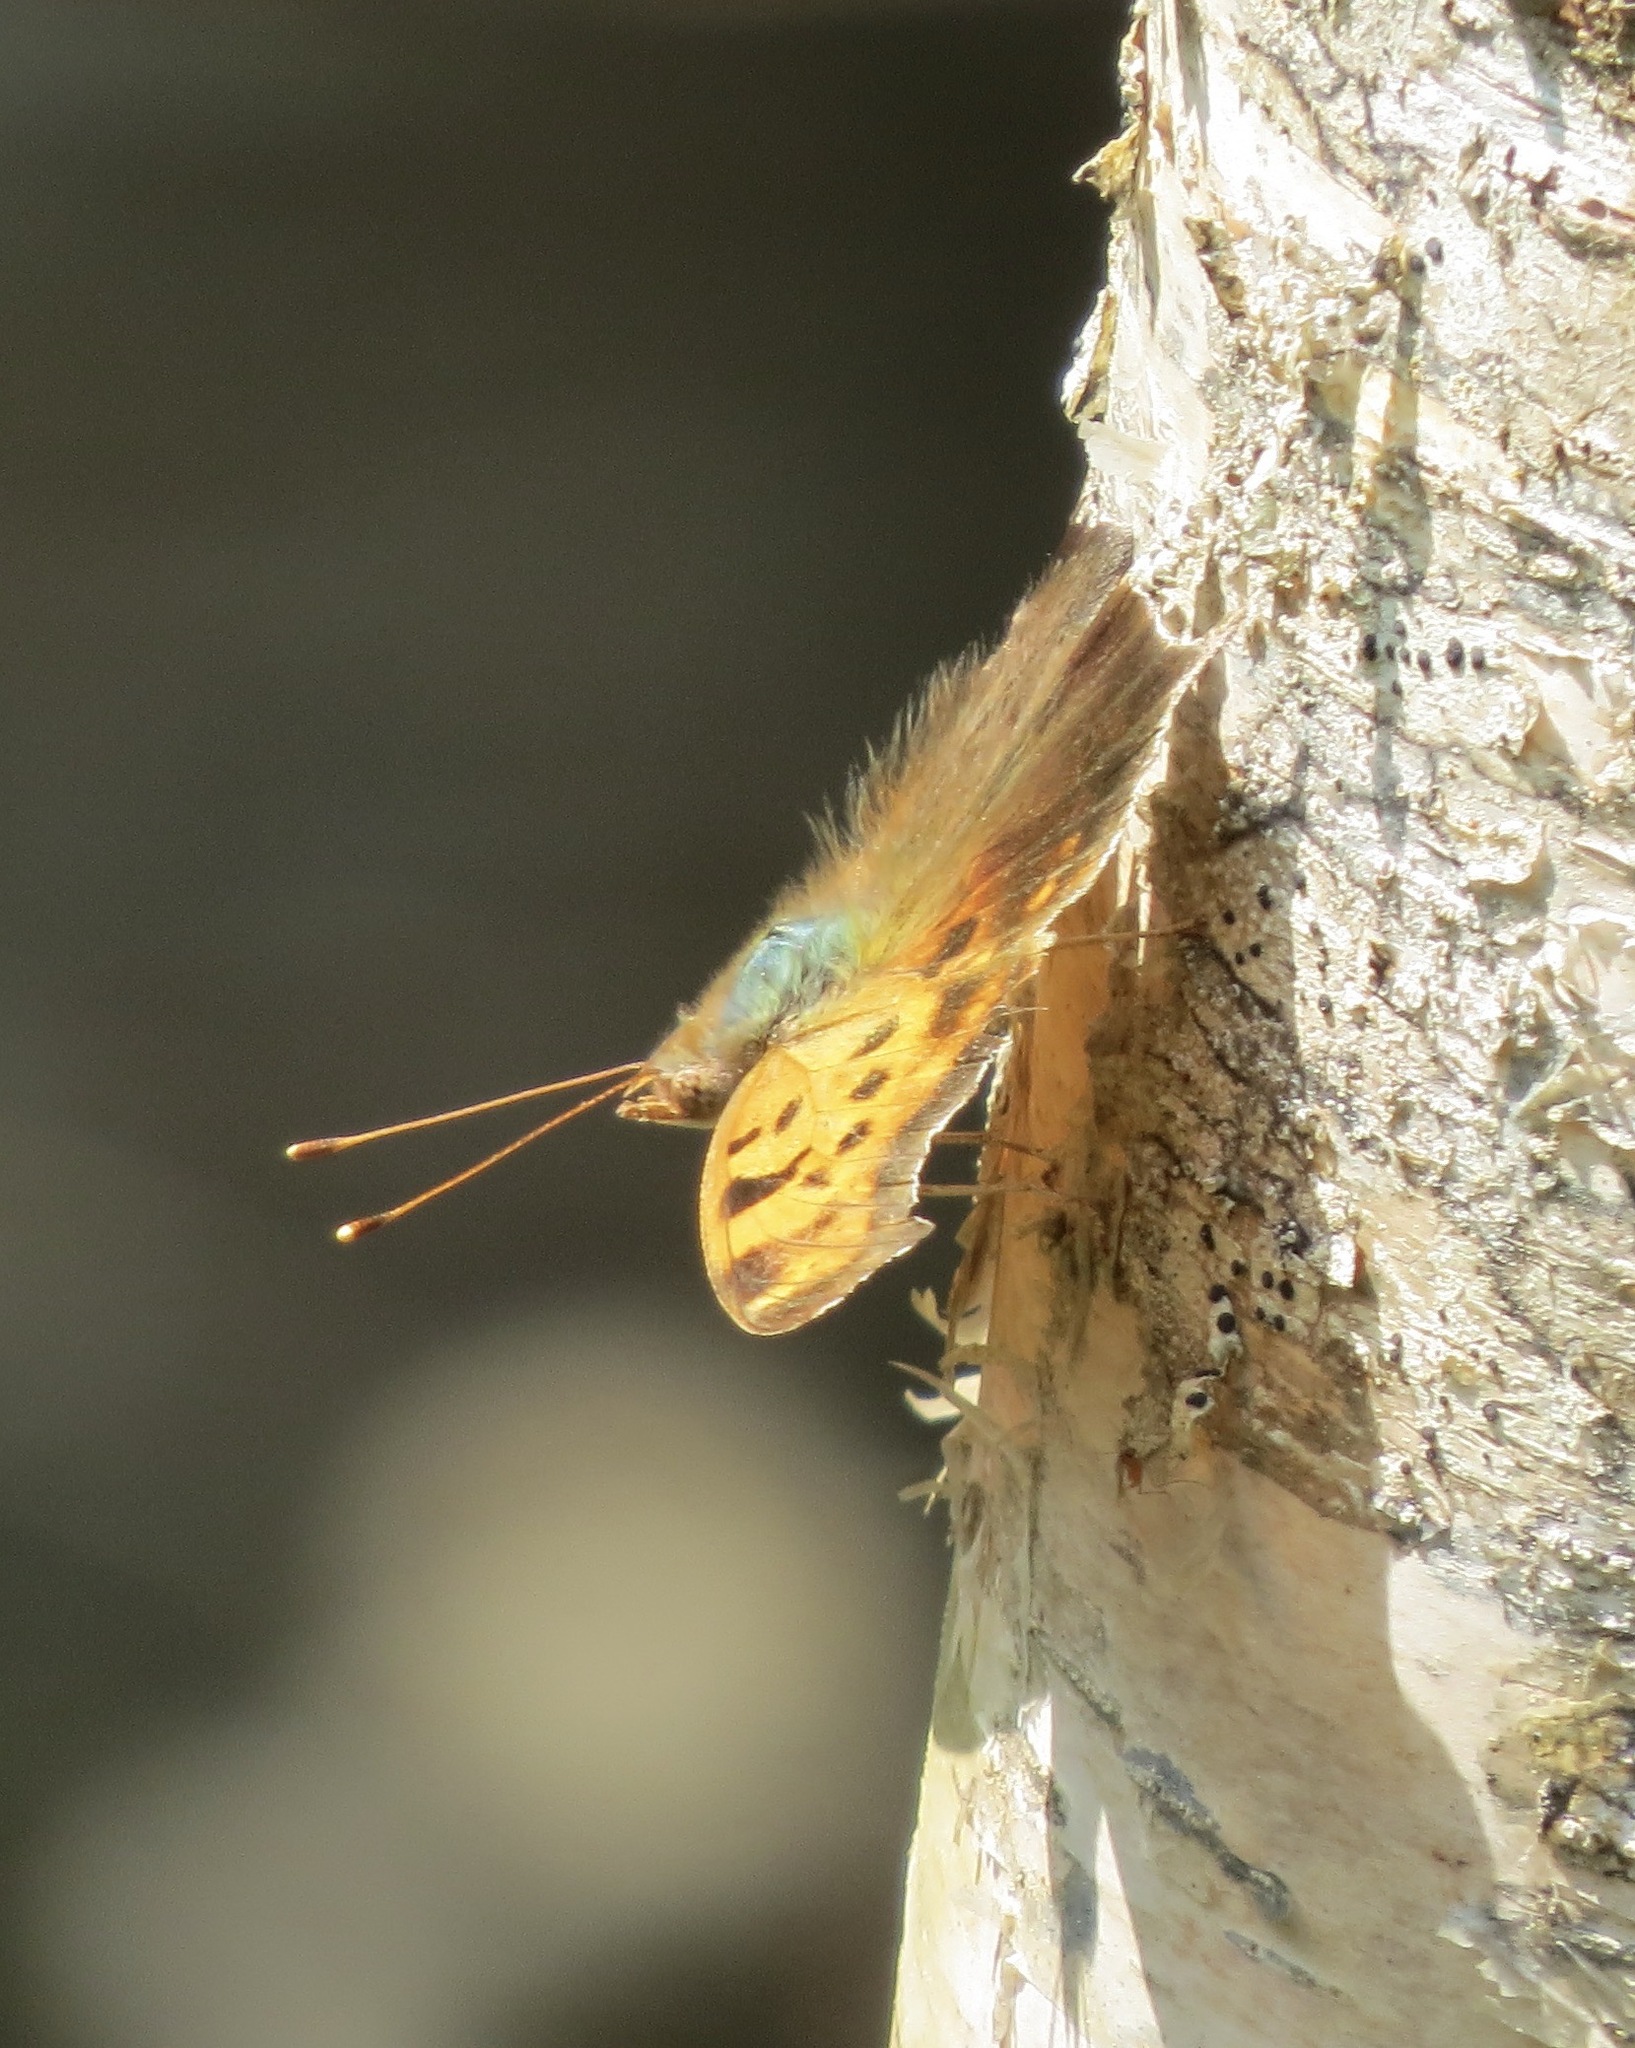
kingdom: Animalia
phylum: Arthropoda
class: Insecta
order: Lepidoptera
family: Nymphalidae
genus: Polygonia
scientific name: Polygonia interrogationis
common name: Question mark
